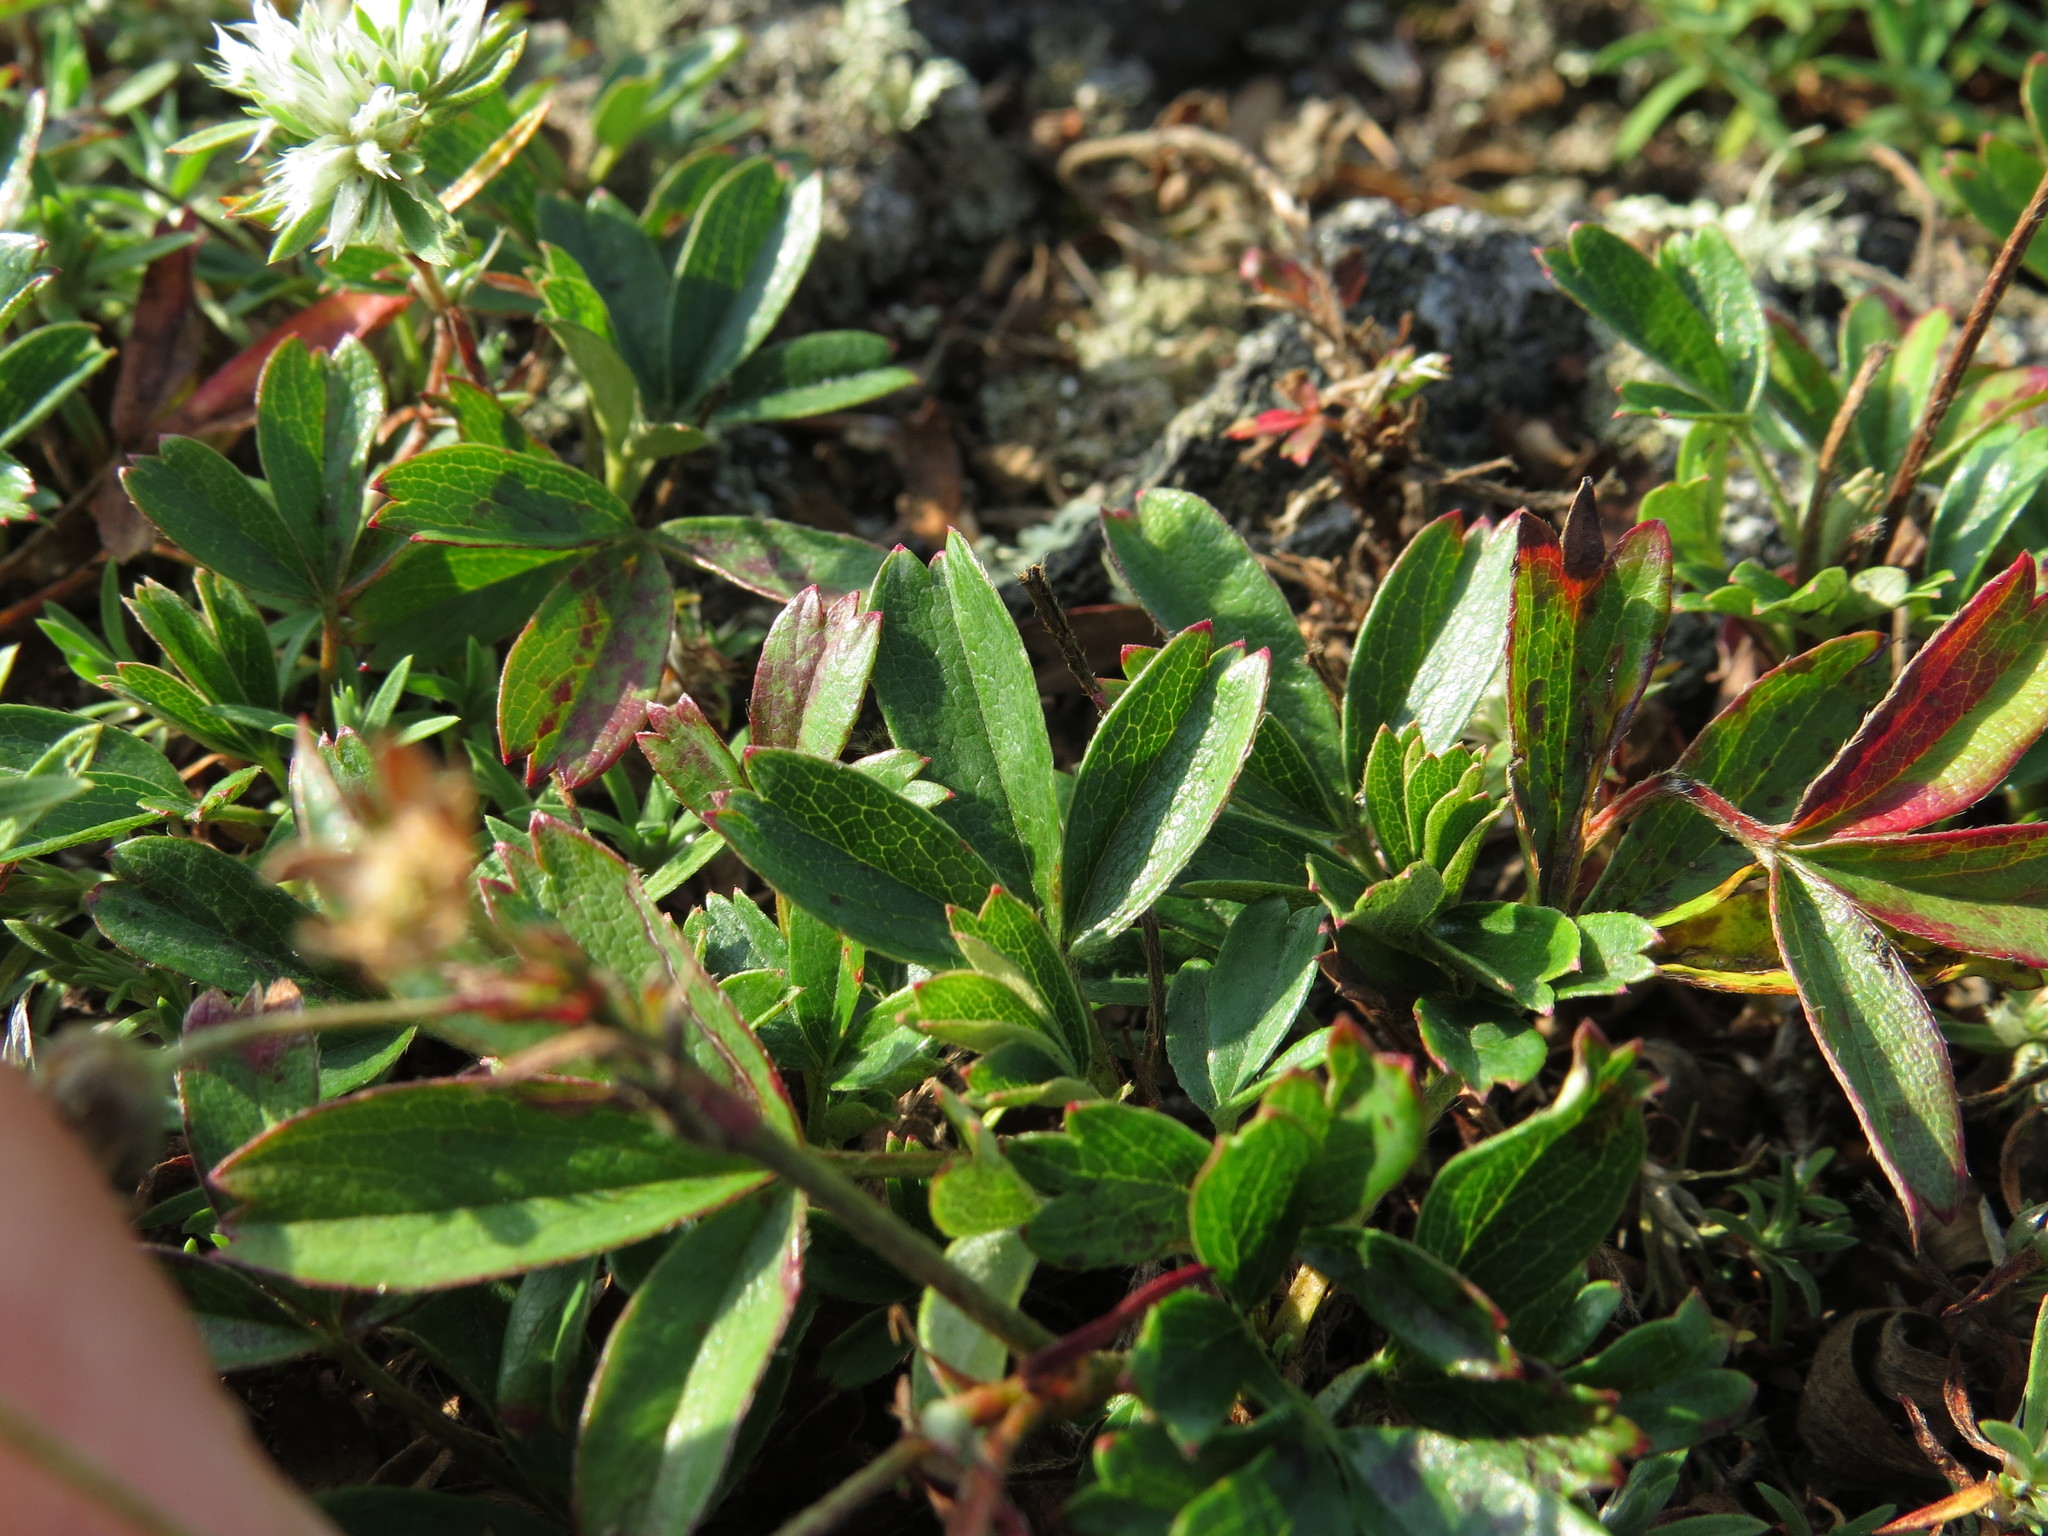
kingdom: Plantae
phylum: Tracheophyta
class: Magnoliopsida
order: Rosales
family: Rosaceae
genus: Sibbaldia
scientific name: Sibbaldia tridentata
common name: Three-toothed cinquefoil
